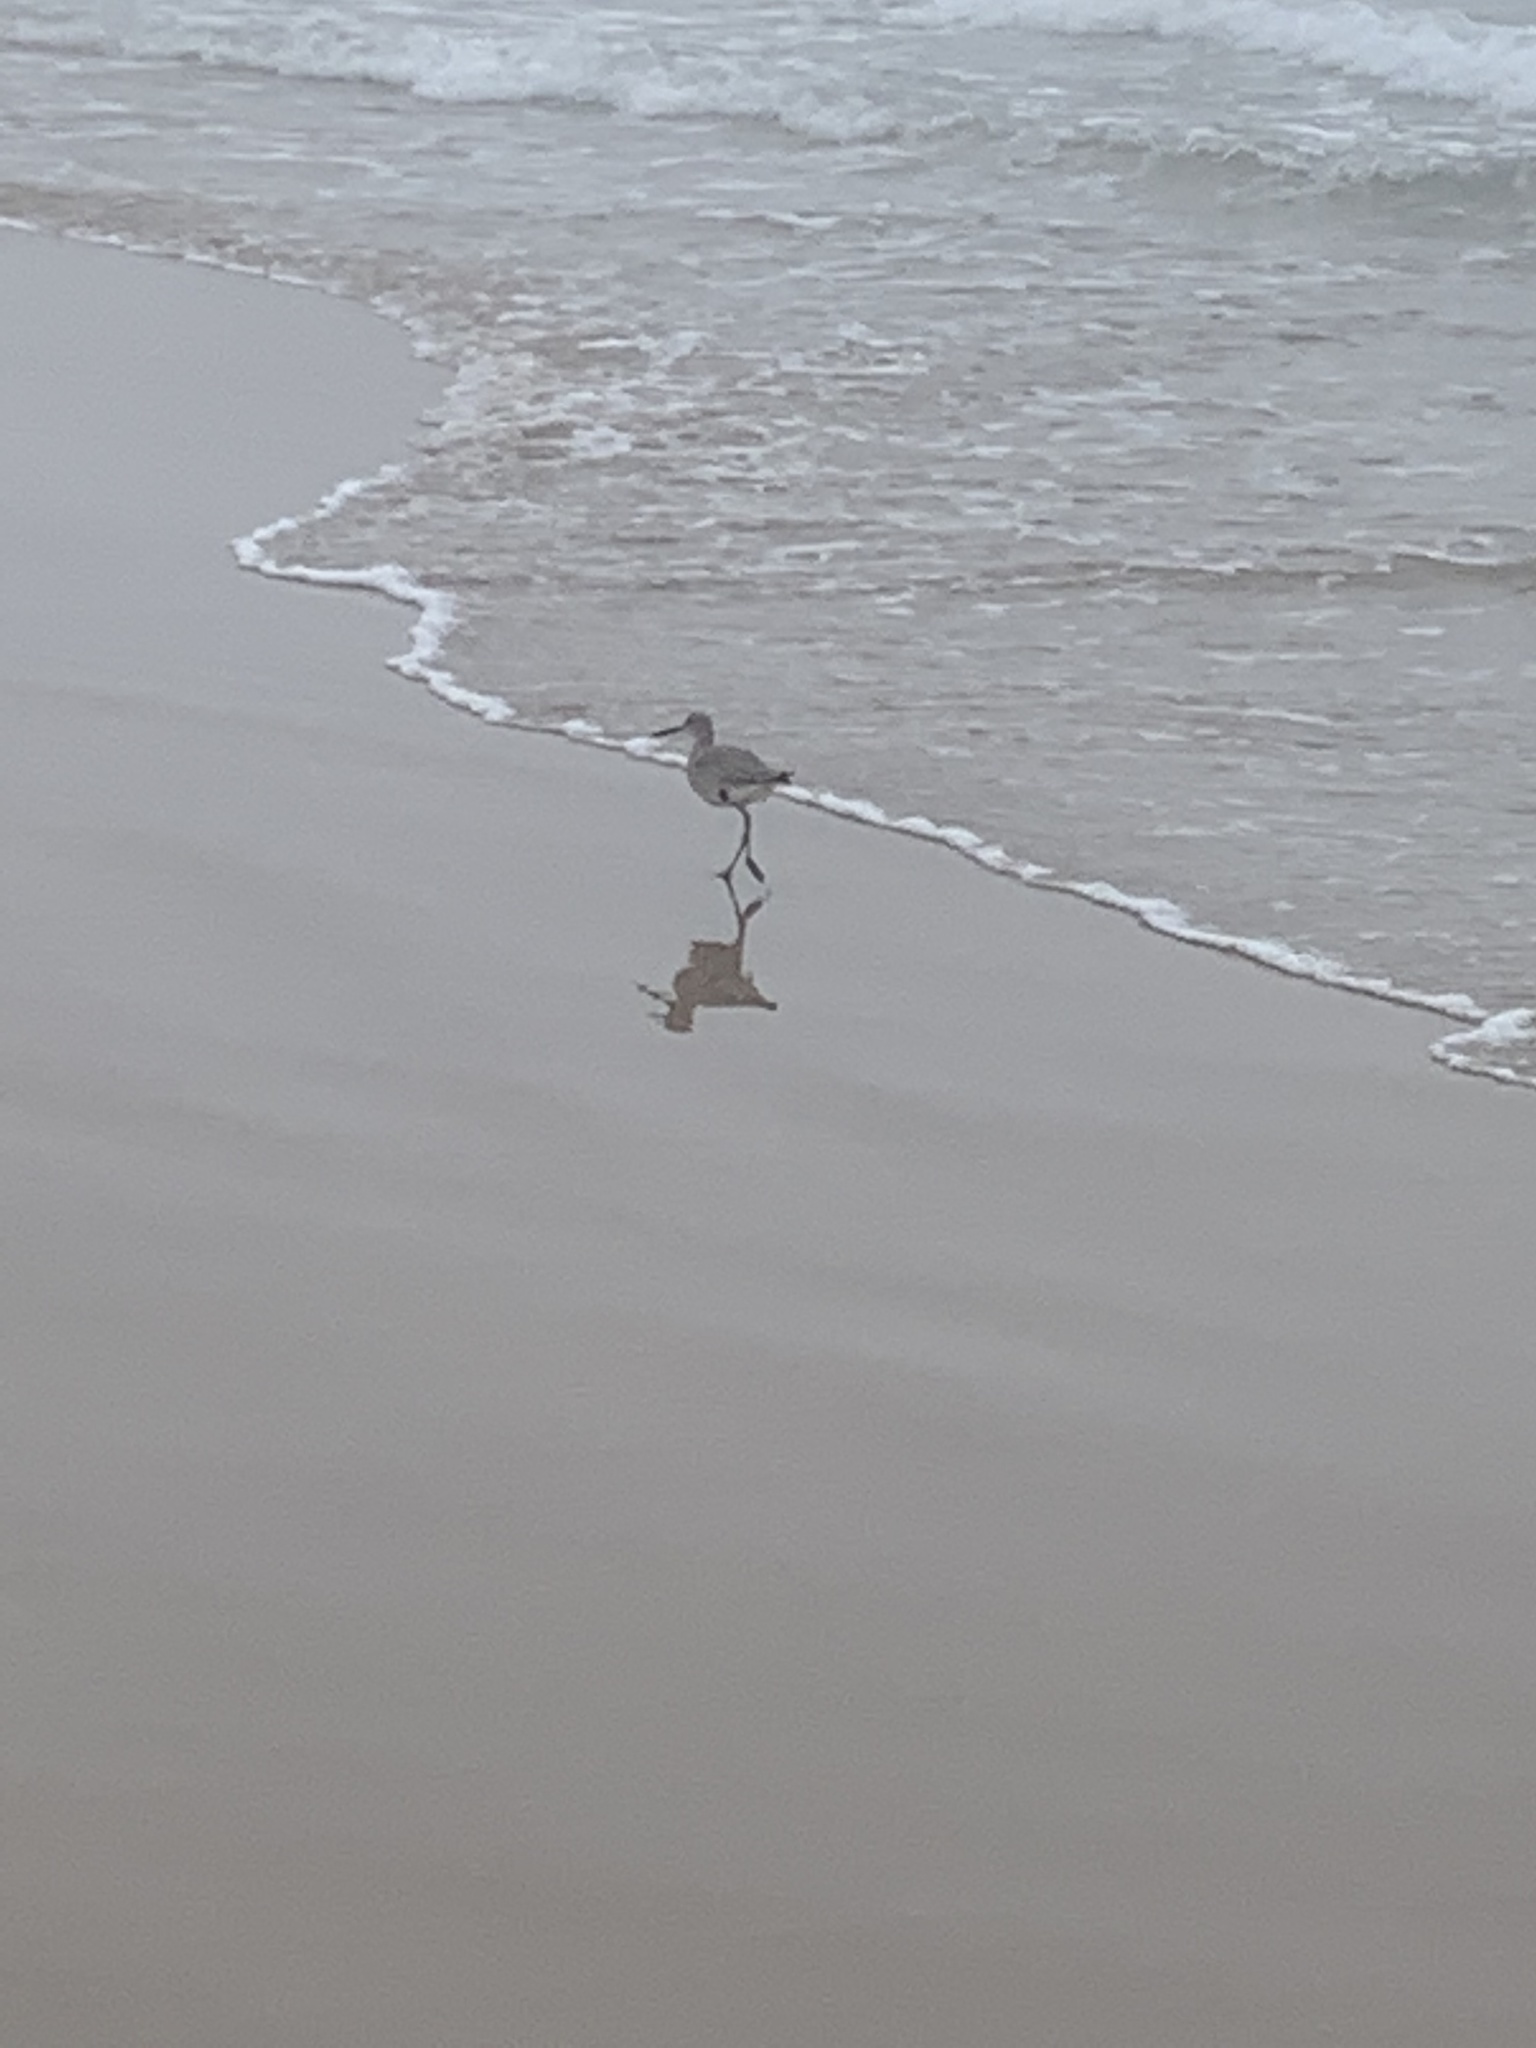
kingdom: Animalia
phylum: Chordata
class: Aves
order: Charadriiformes
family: Scolopacidae
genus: Tringa
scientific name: Tringa semipalmata
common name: Willet
